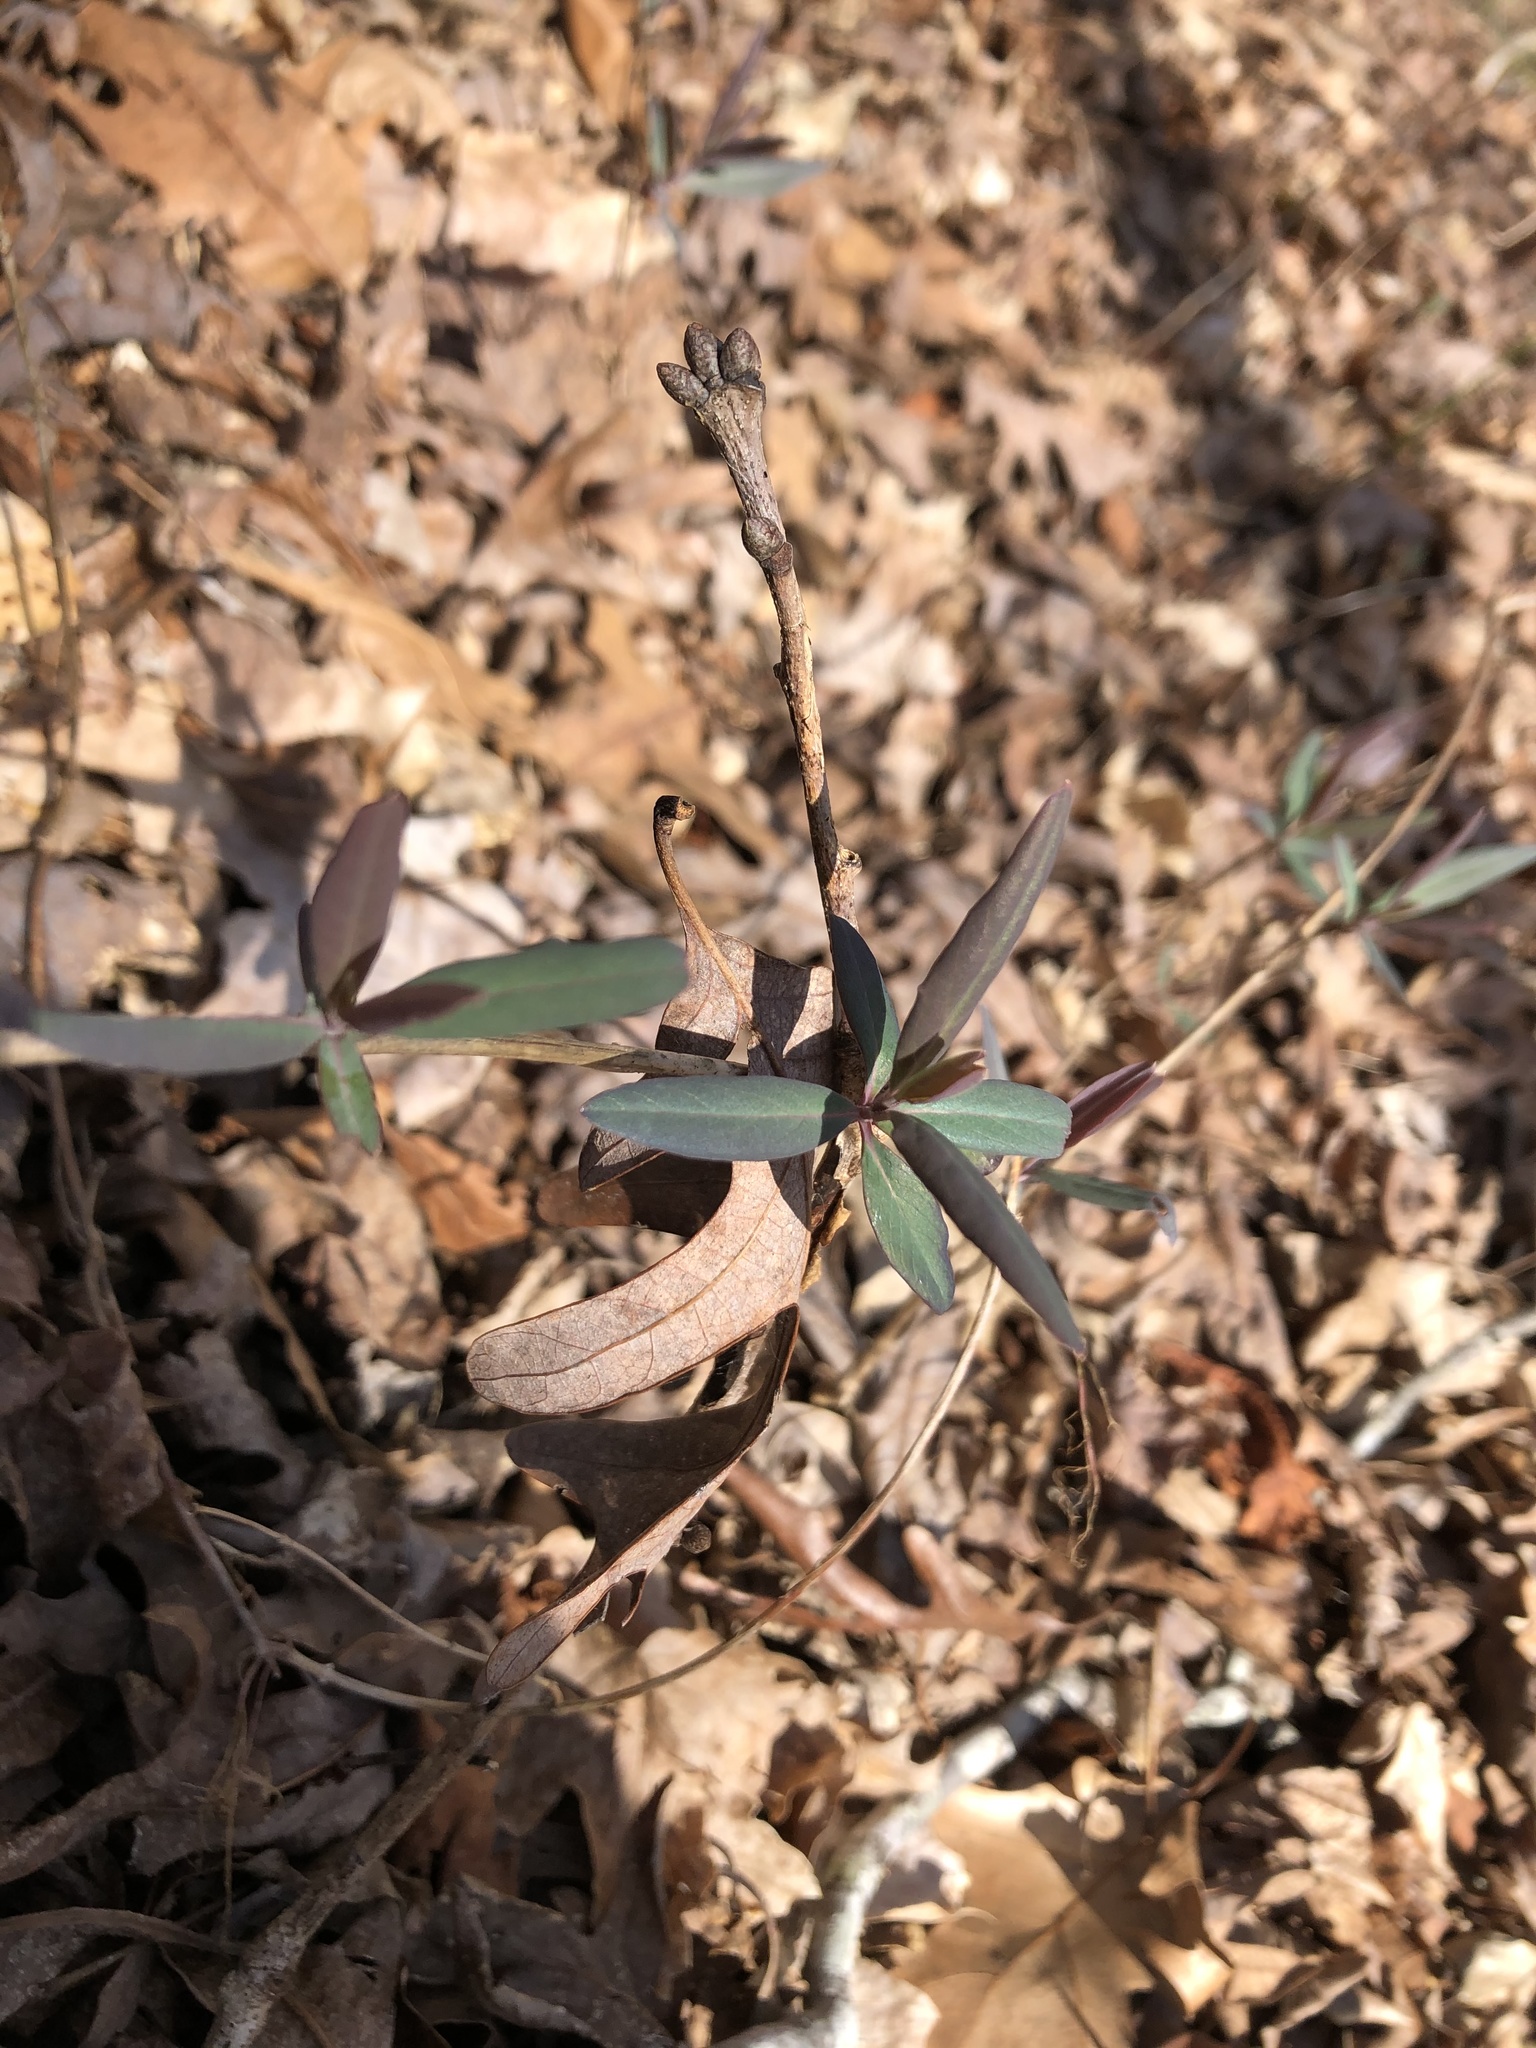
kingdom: Plantae
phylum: Tracheophyta
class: Magnoliopsida
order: Dipsacales
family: Caprifoliaceae
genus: Lonicera
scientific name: Lonicera sempervirens
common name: Coral honeysuckle
